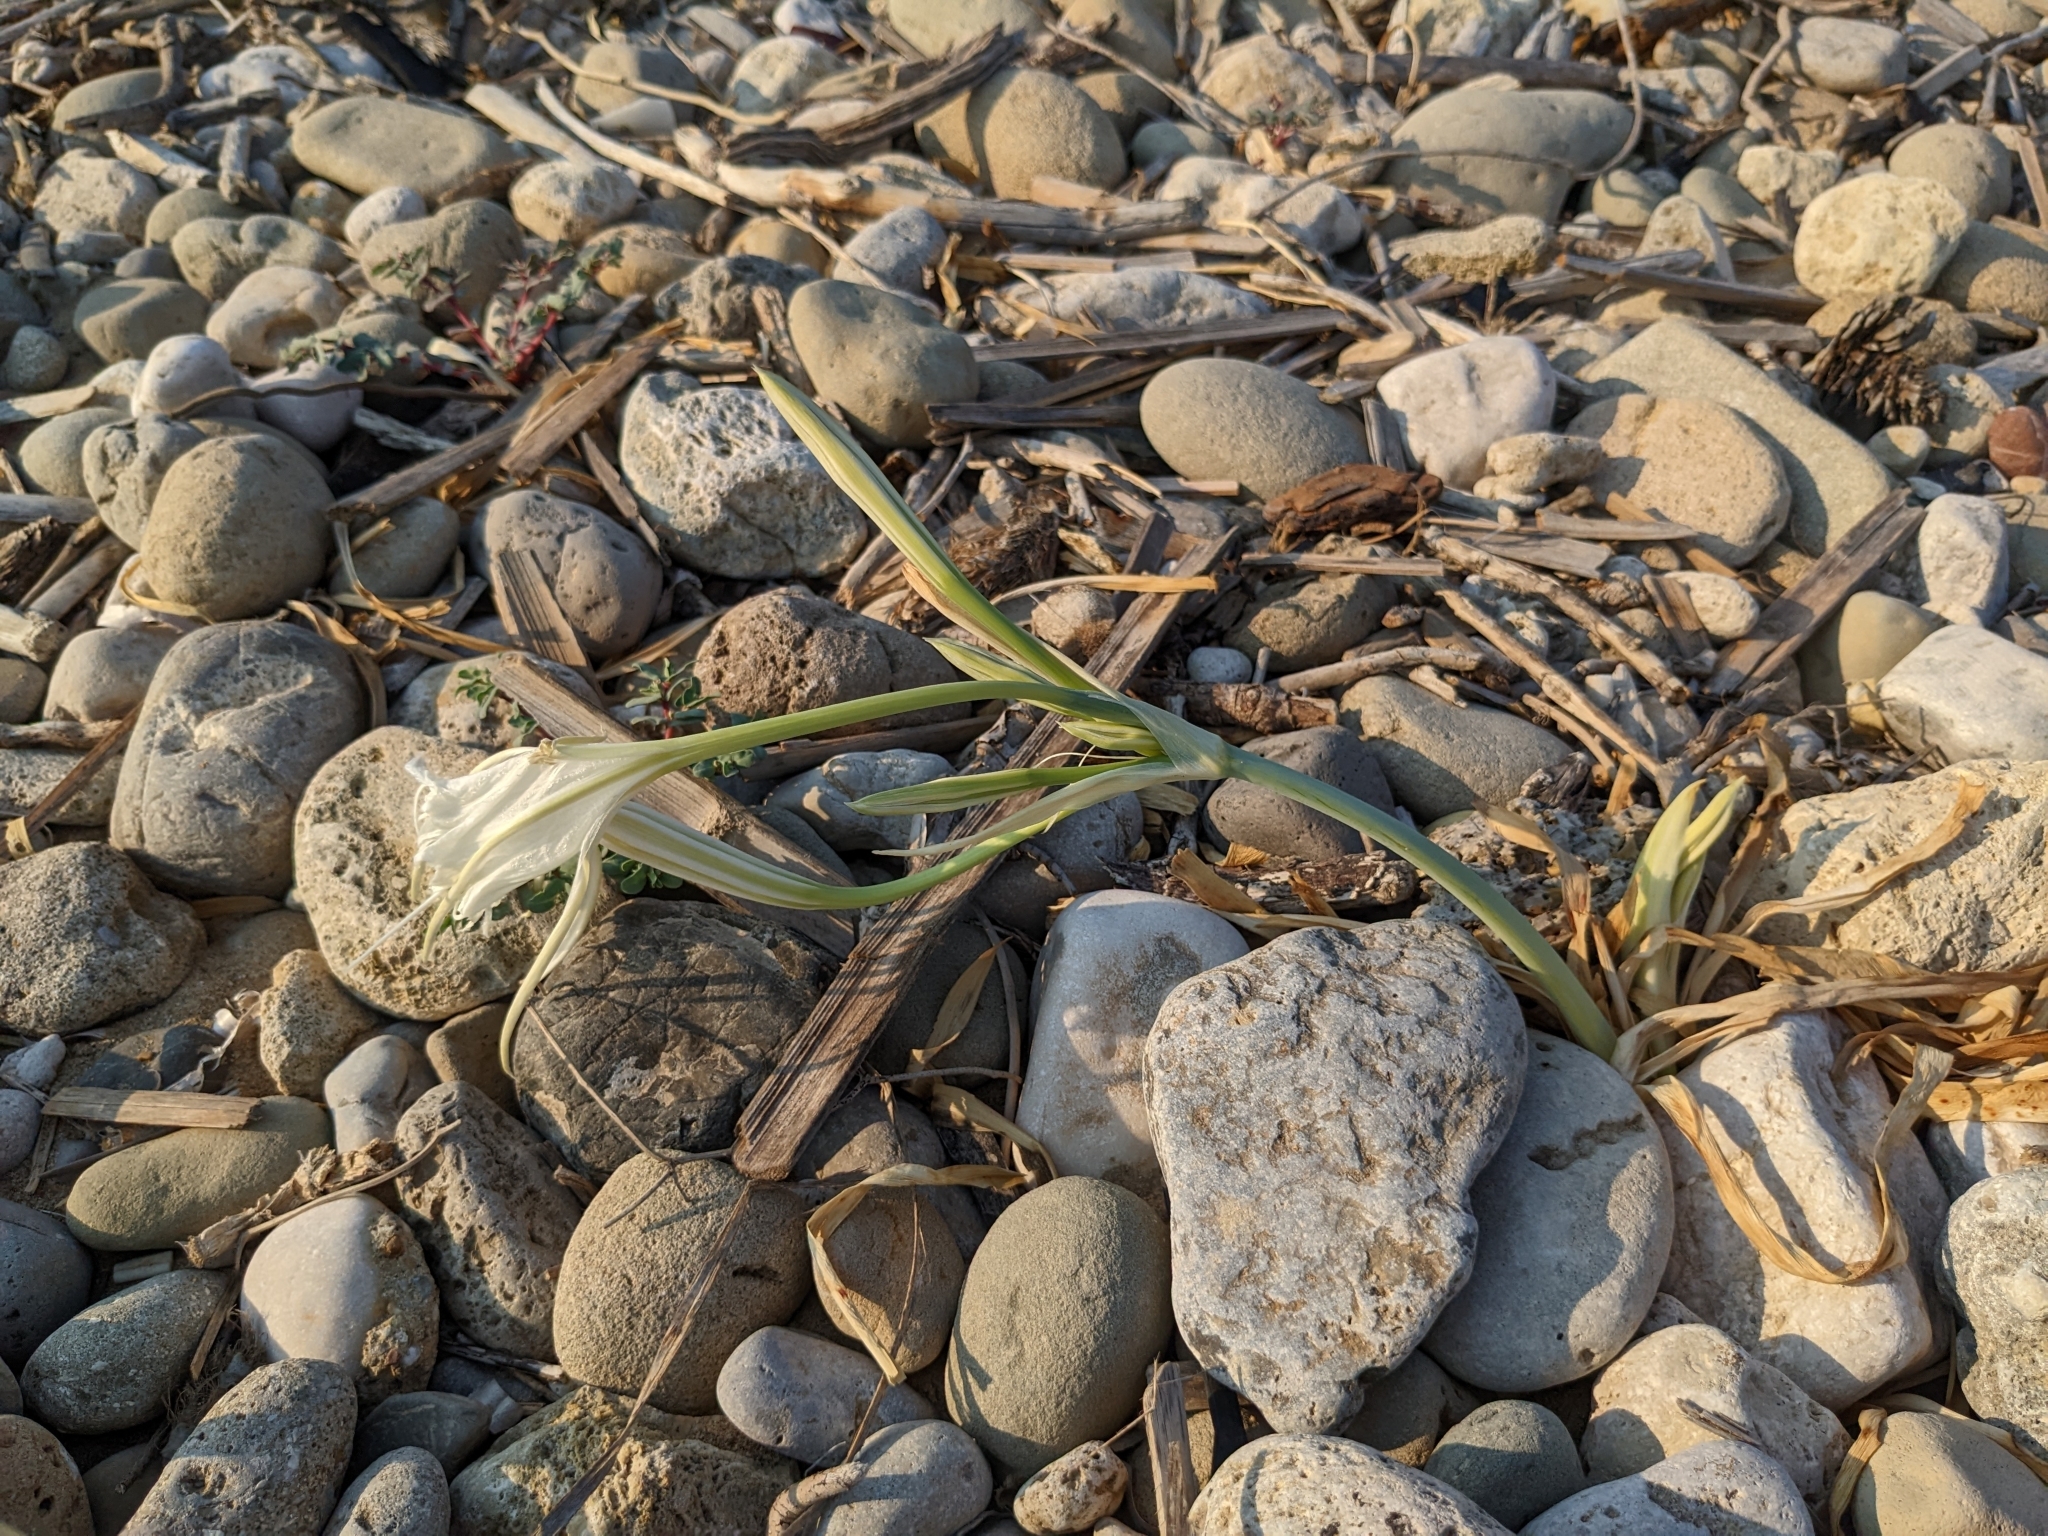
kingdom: Plantae
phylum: Tracheophyta
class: Liliopsida
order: Asparagales
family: Amaryllidaceae
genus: Pancratium
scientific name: Pancratium maritimum
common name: Sea-daffodil
